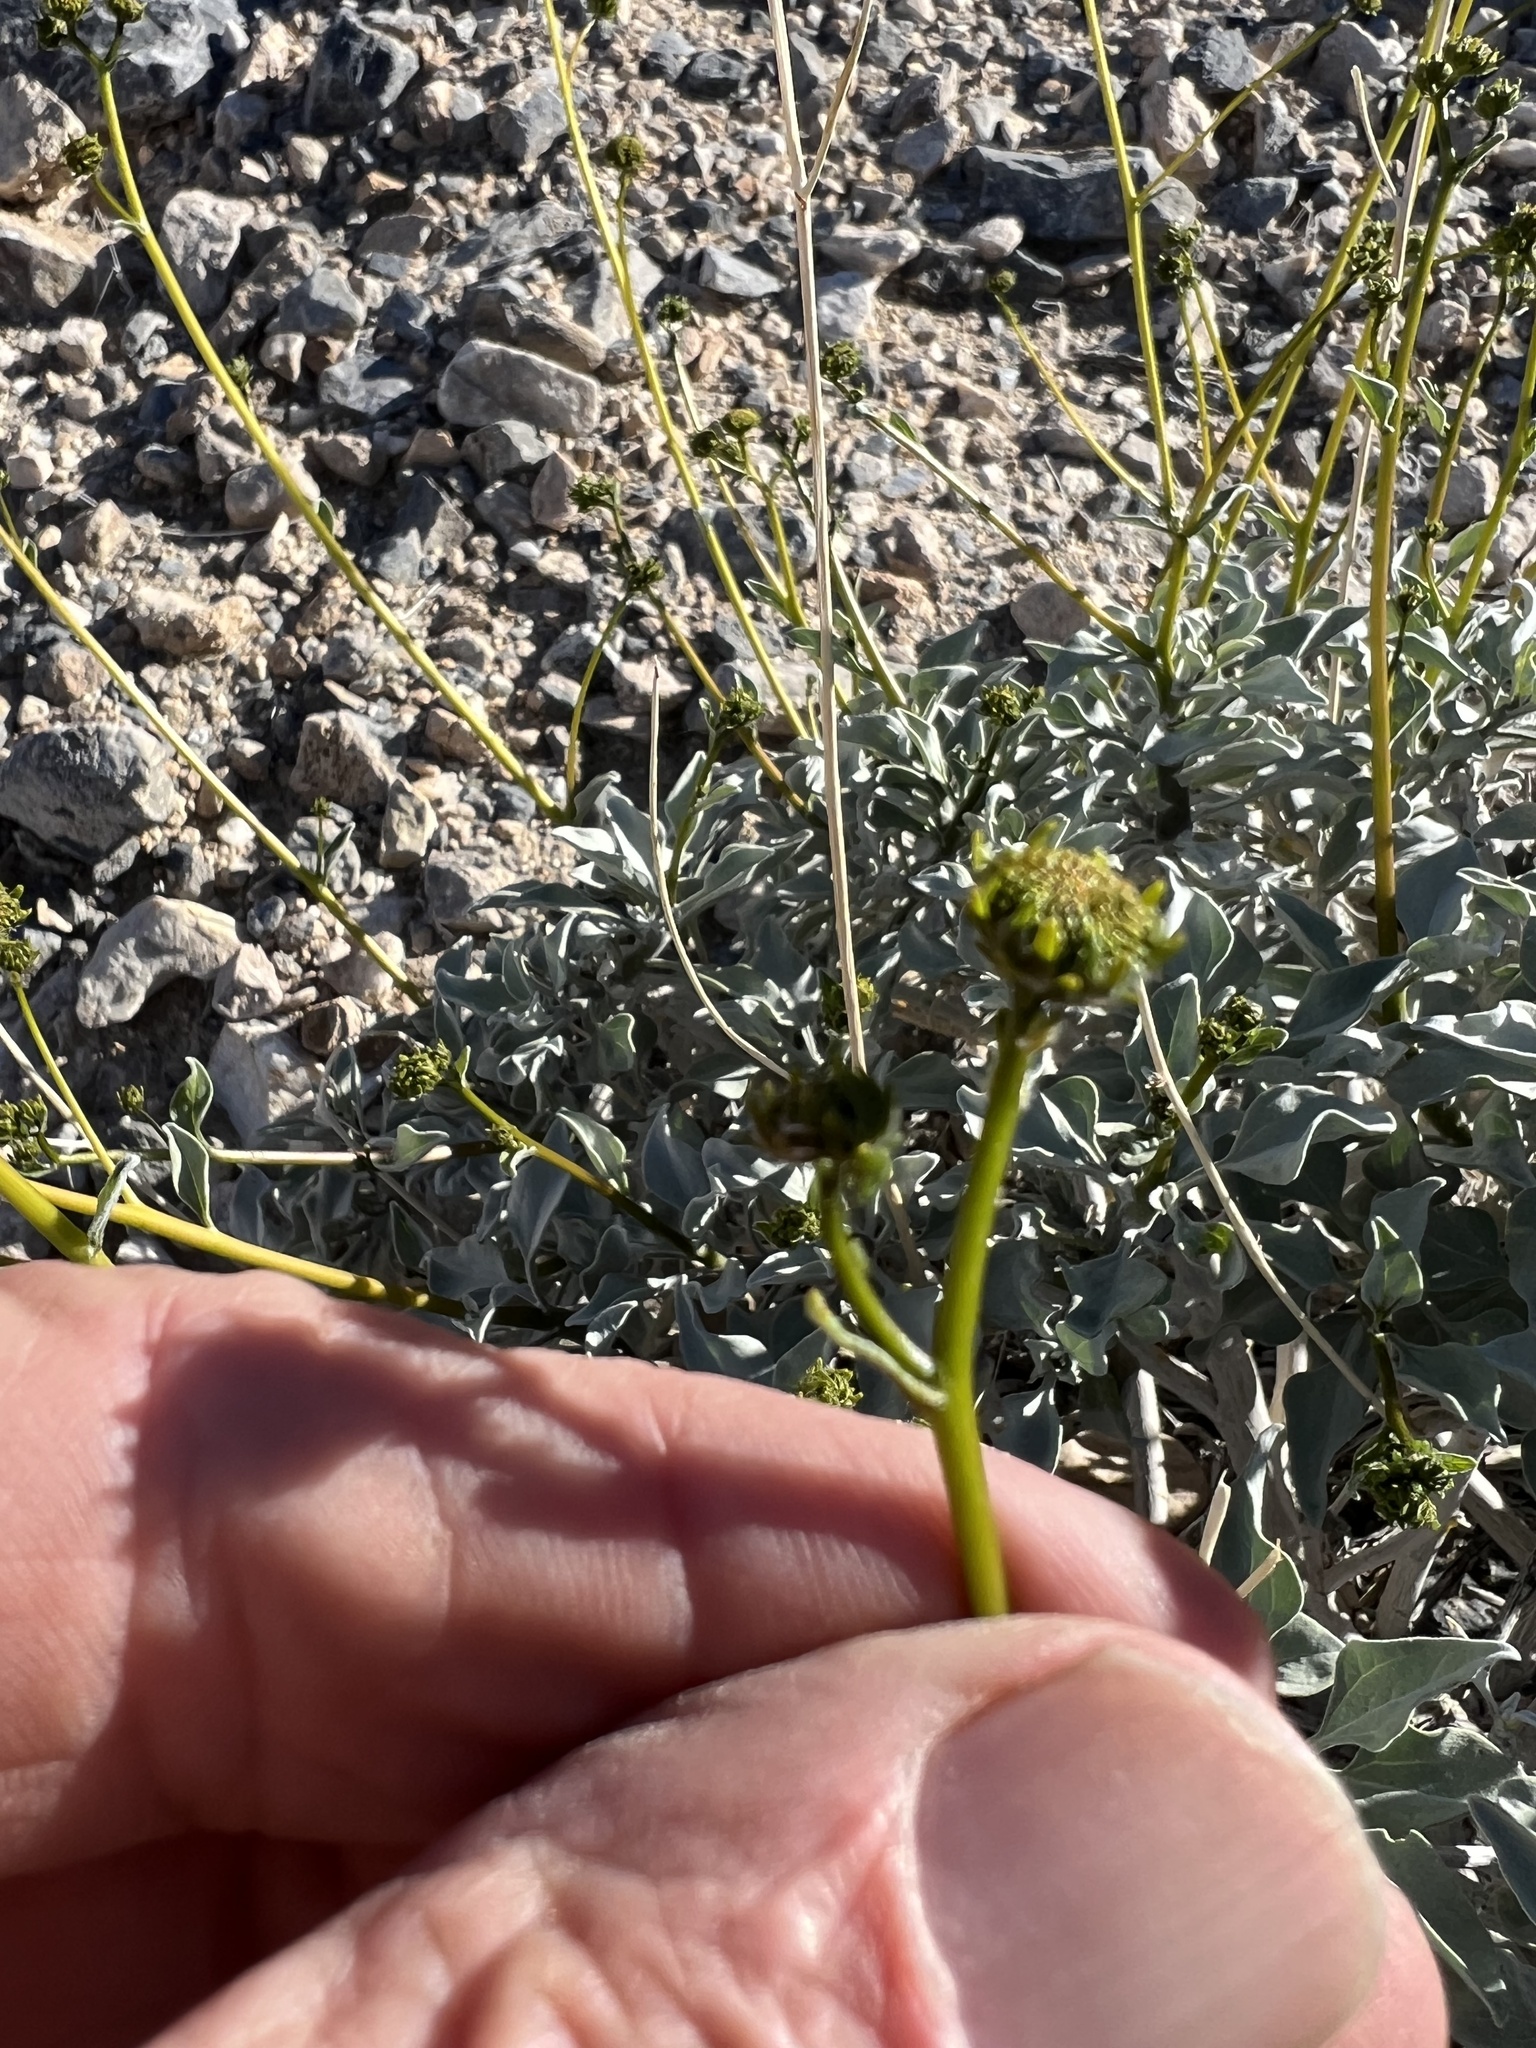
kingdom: Plantae
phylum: Tracheophyta
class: Magnoliopsida
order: Asterales
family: Asteraceae
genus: Encelia
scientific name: Encelia farinosa
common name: Brittlebush
